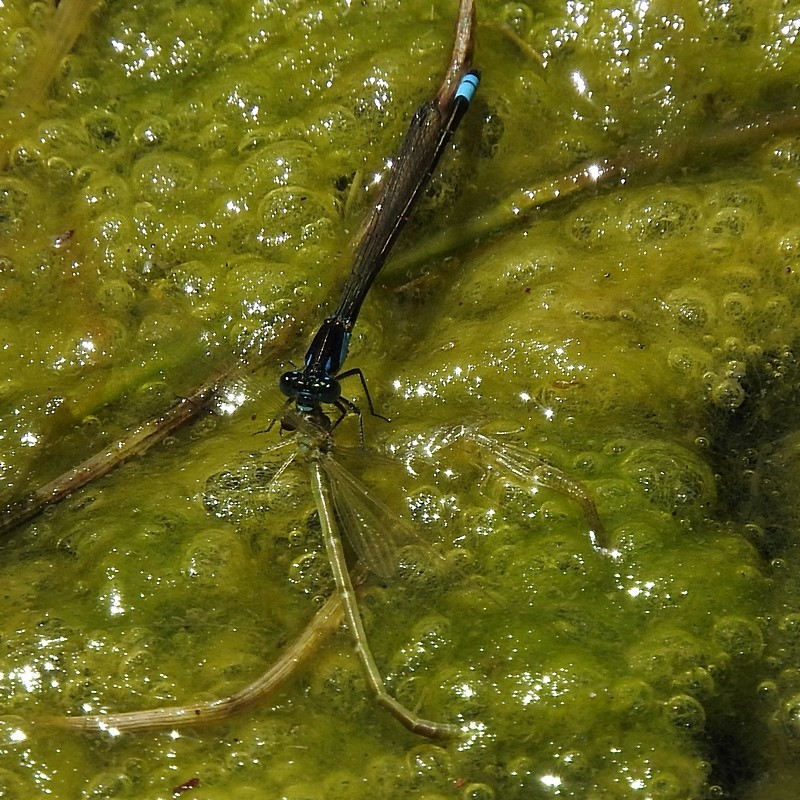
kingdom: Animalia
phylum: Arthropoda
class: Insecta
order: Odonata
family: Coenagrionidae
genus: Ischnura
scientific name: Ischnura heterosticta
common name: Common bluetail
